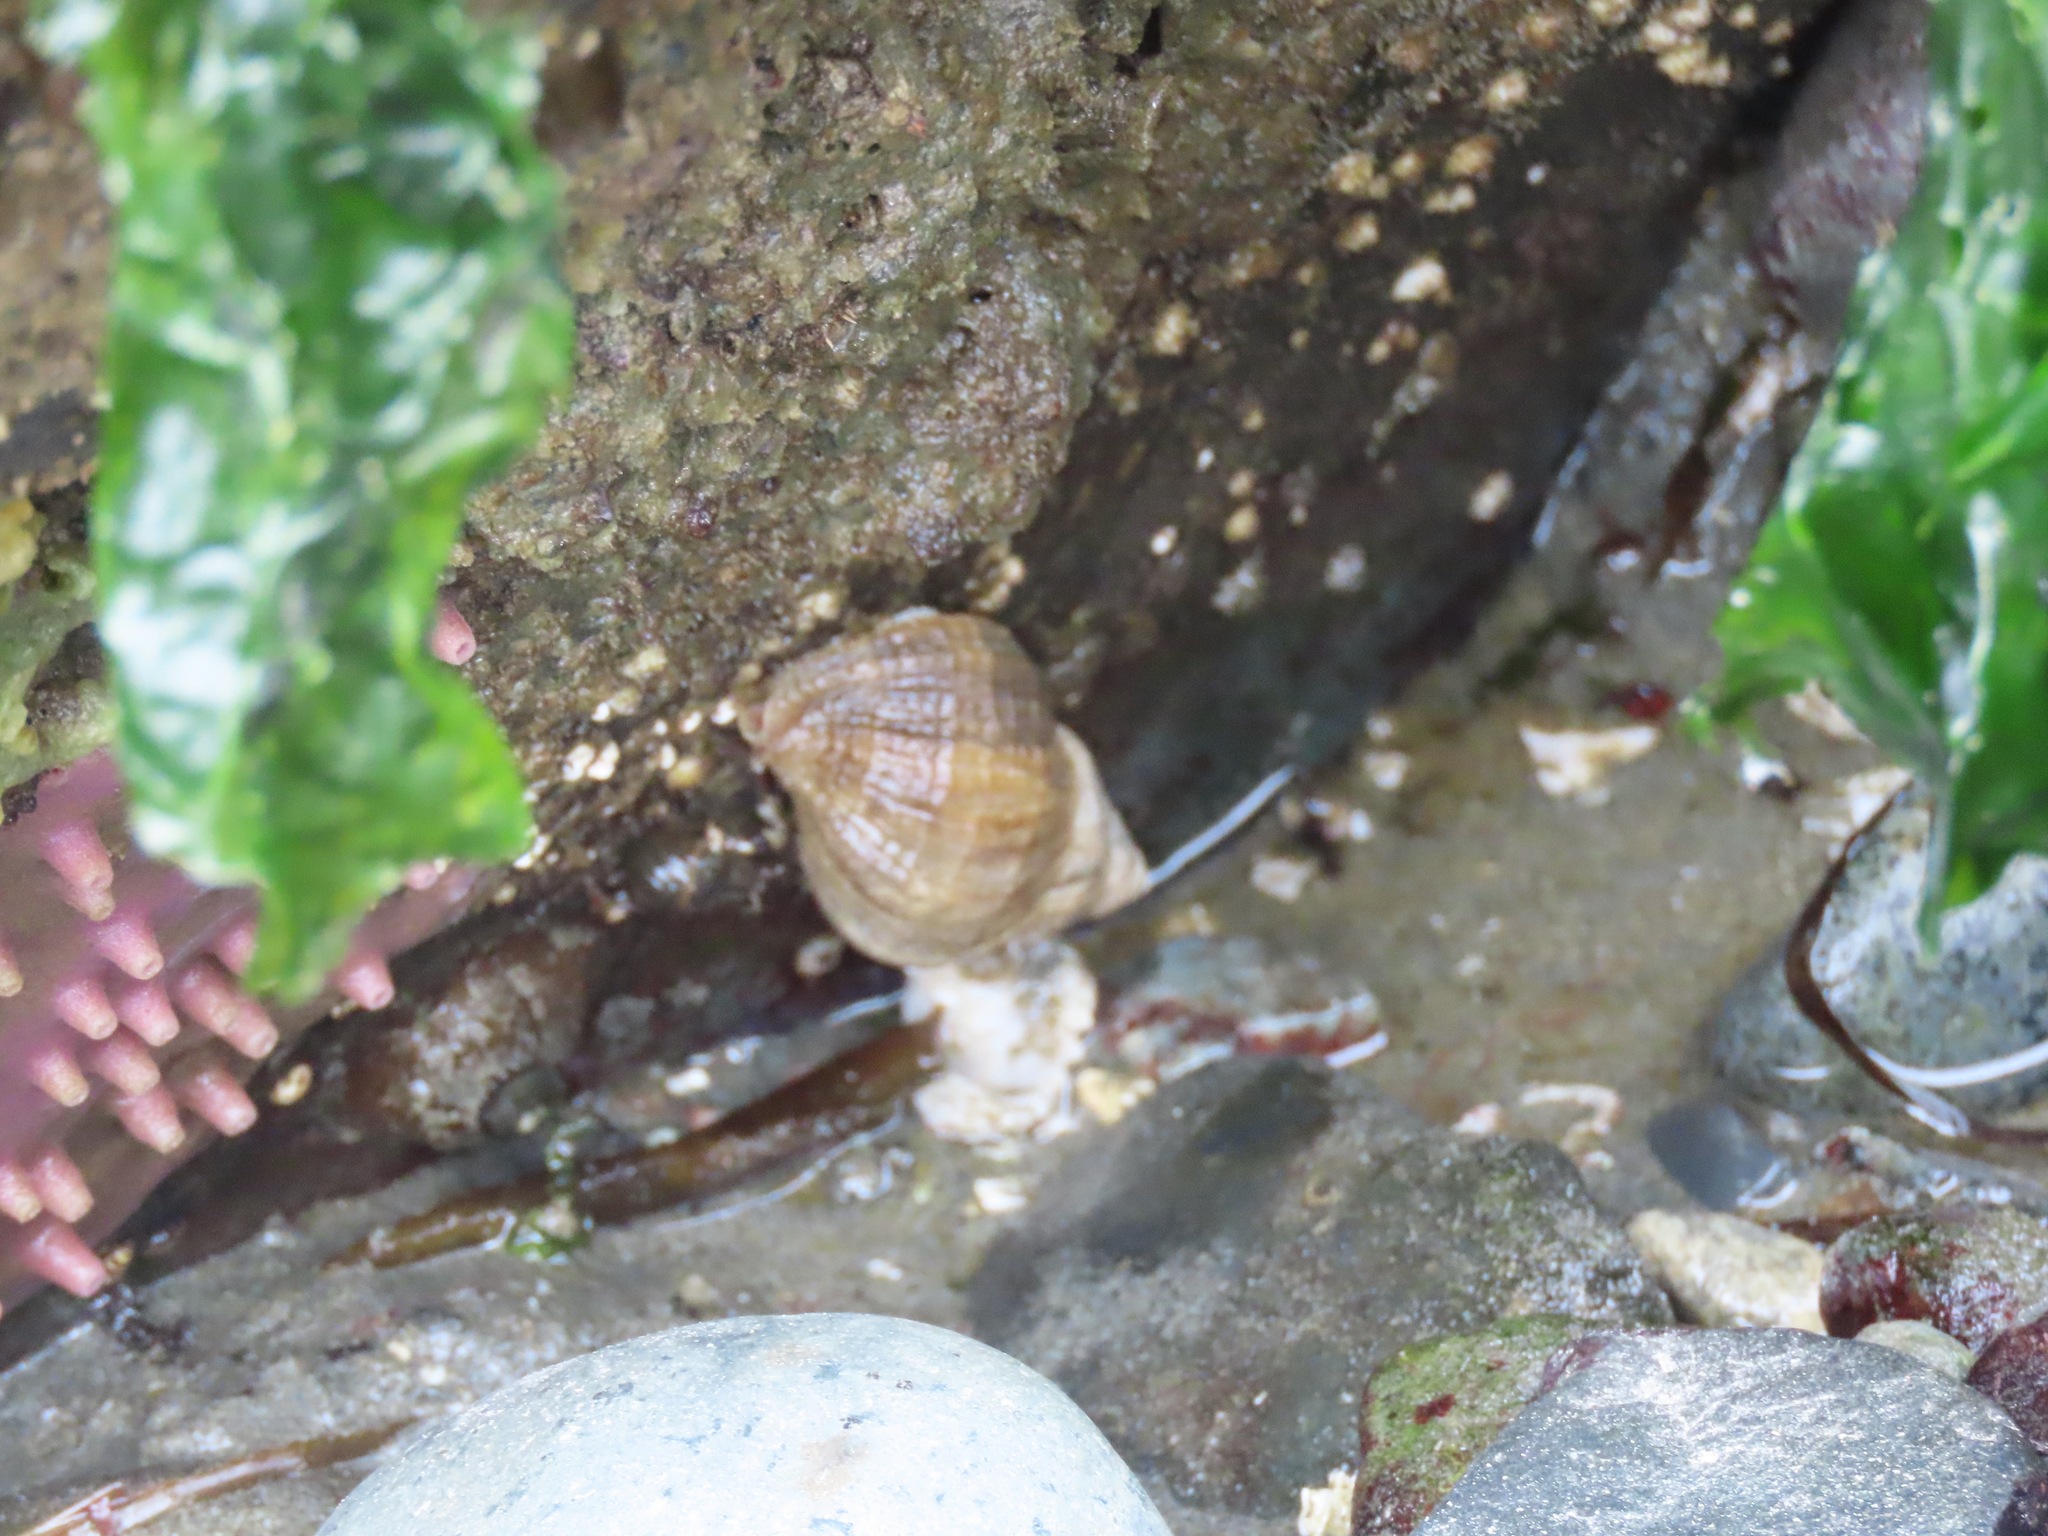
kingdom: Animalia
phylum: Mollusca
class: Gastropoda
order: Neogastropoda
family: Muricidae
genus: Nucella
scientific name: Nucella lamellosa
